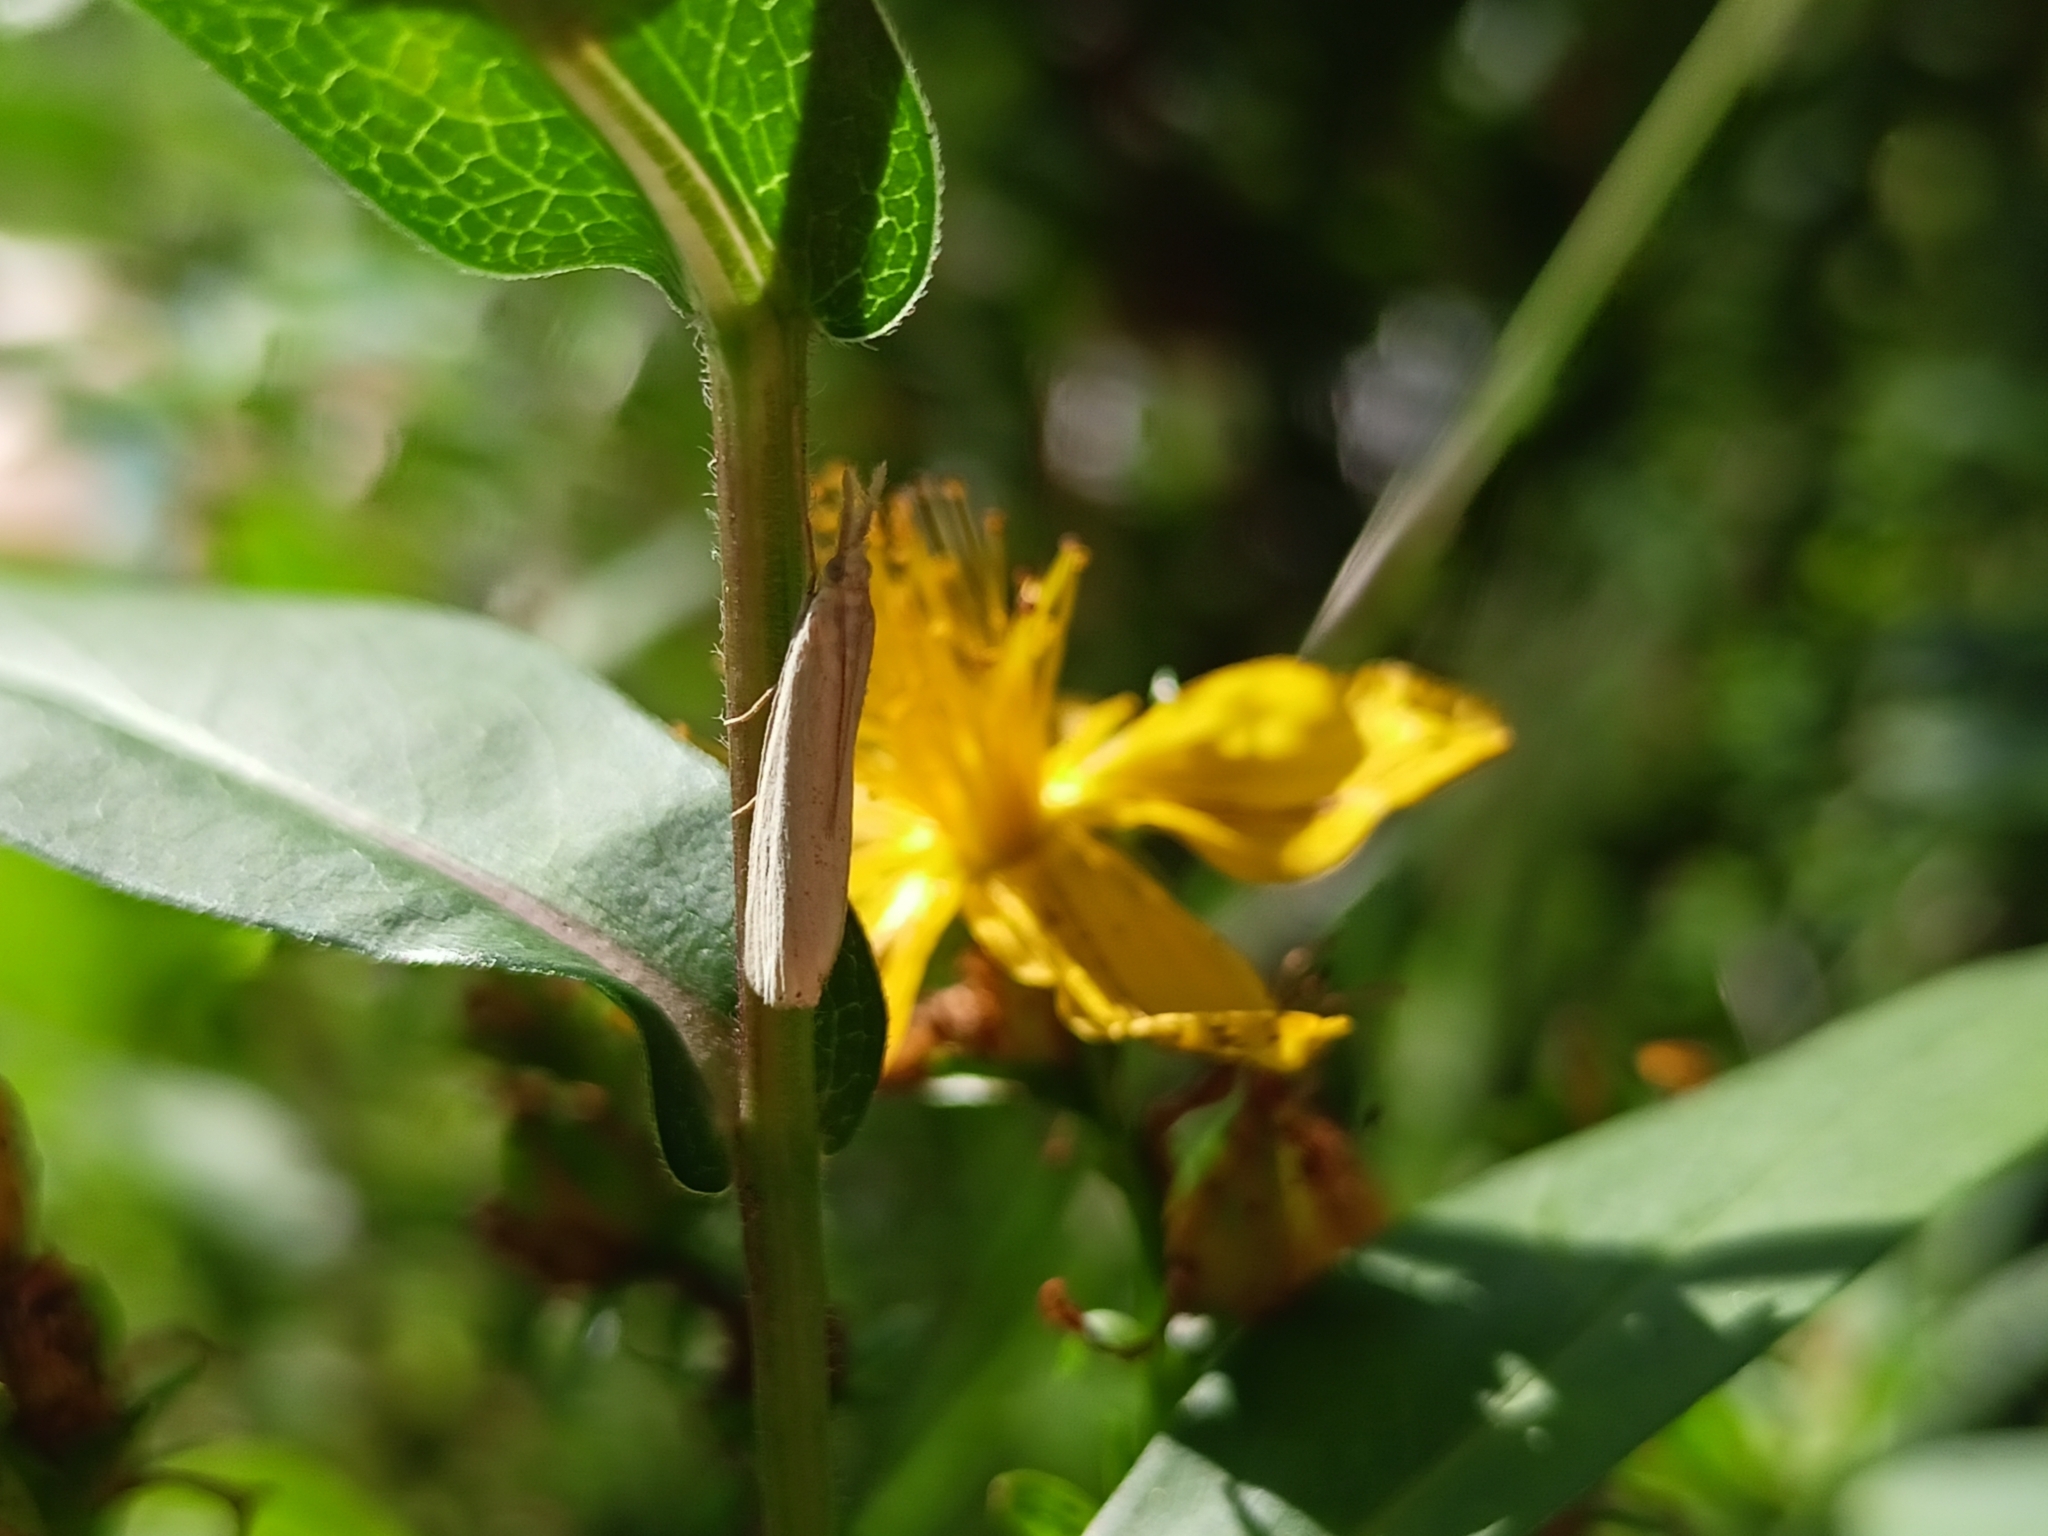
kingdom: Animalia
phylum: Arthropoda
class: Insecta
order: Lepidoptera
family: Crambidae
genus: Agriphila
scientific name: Agriphila straminella
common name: Straw grass-veneer
